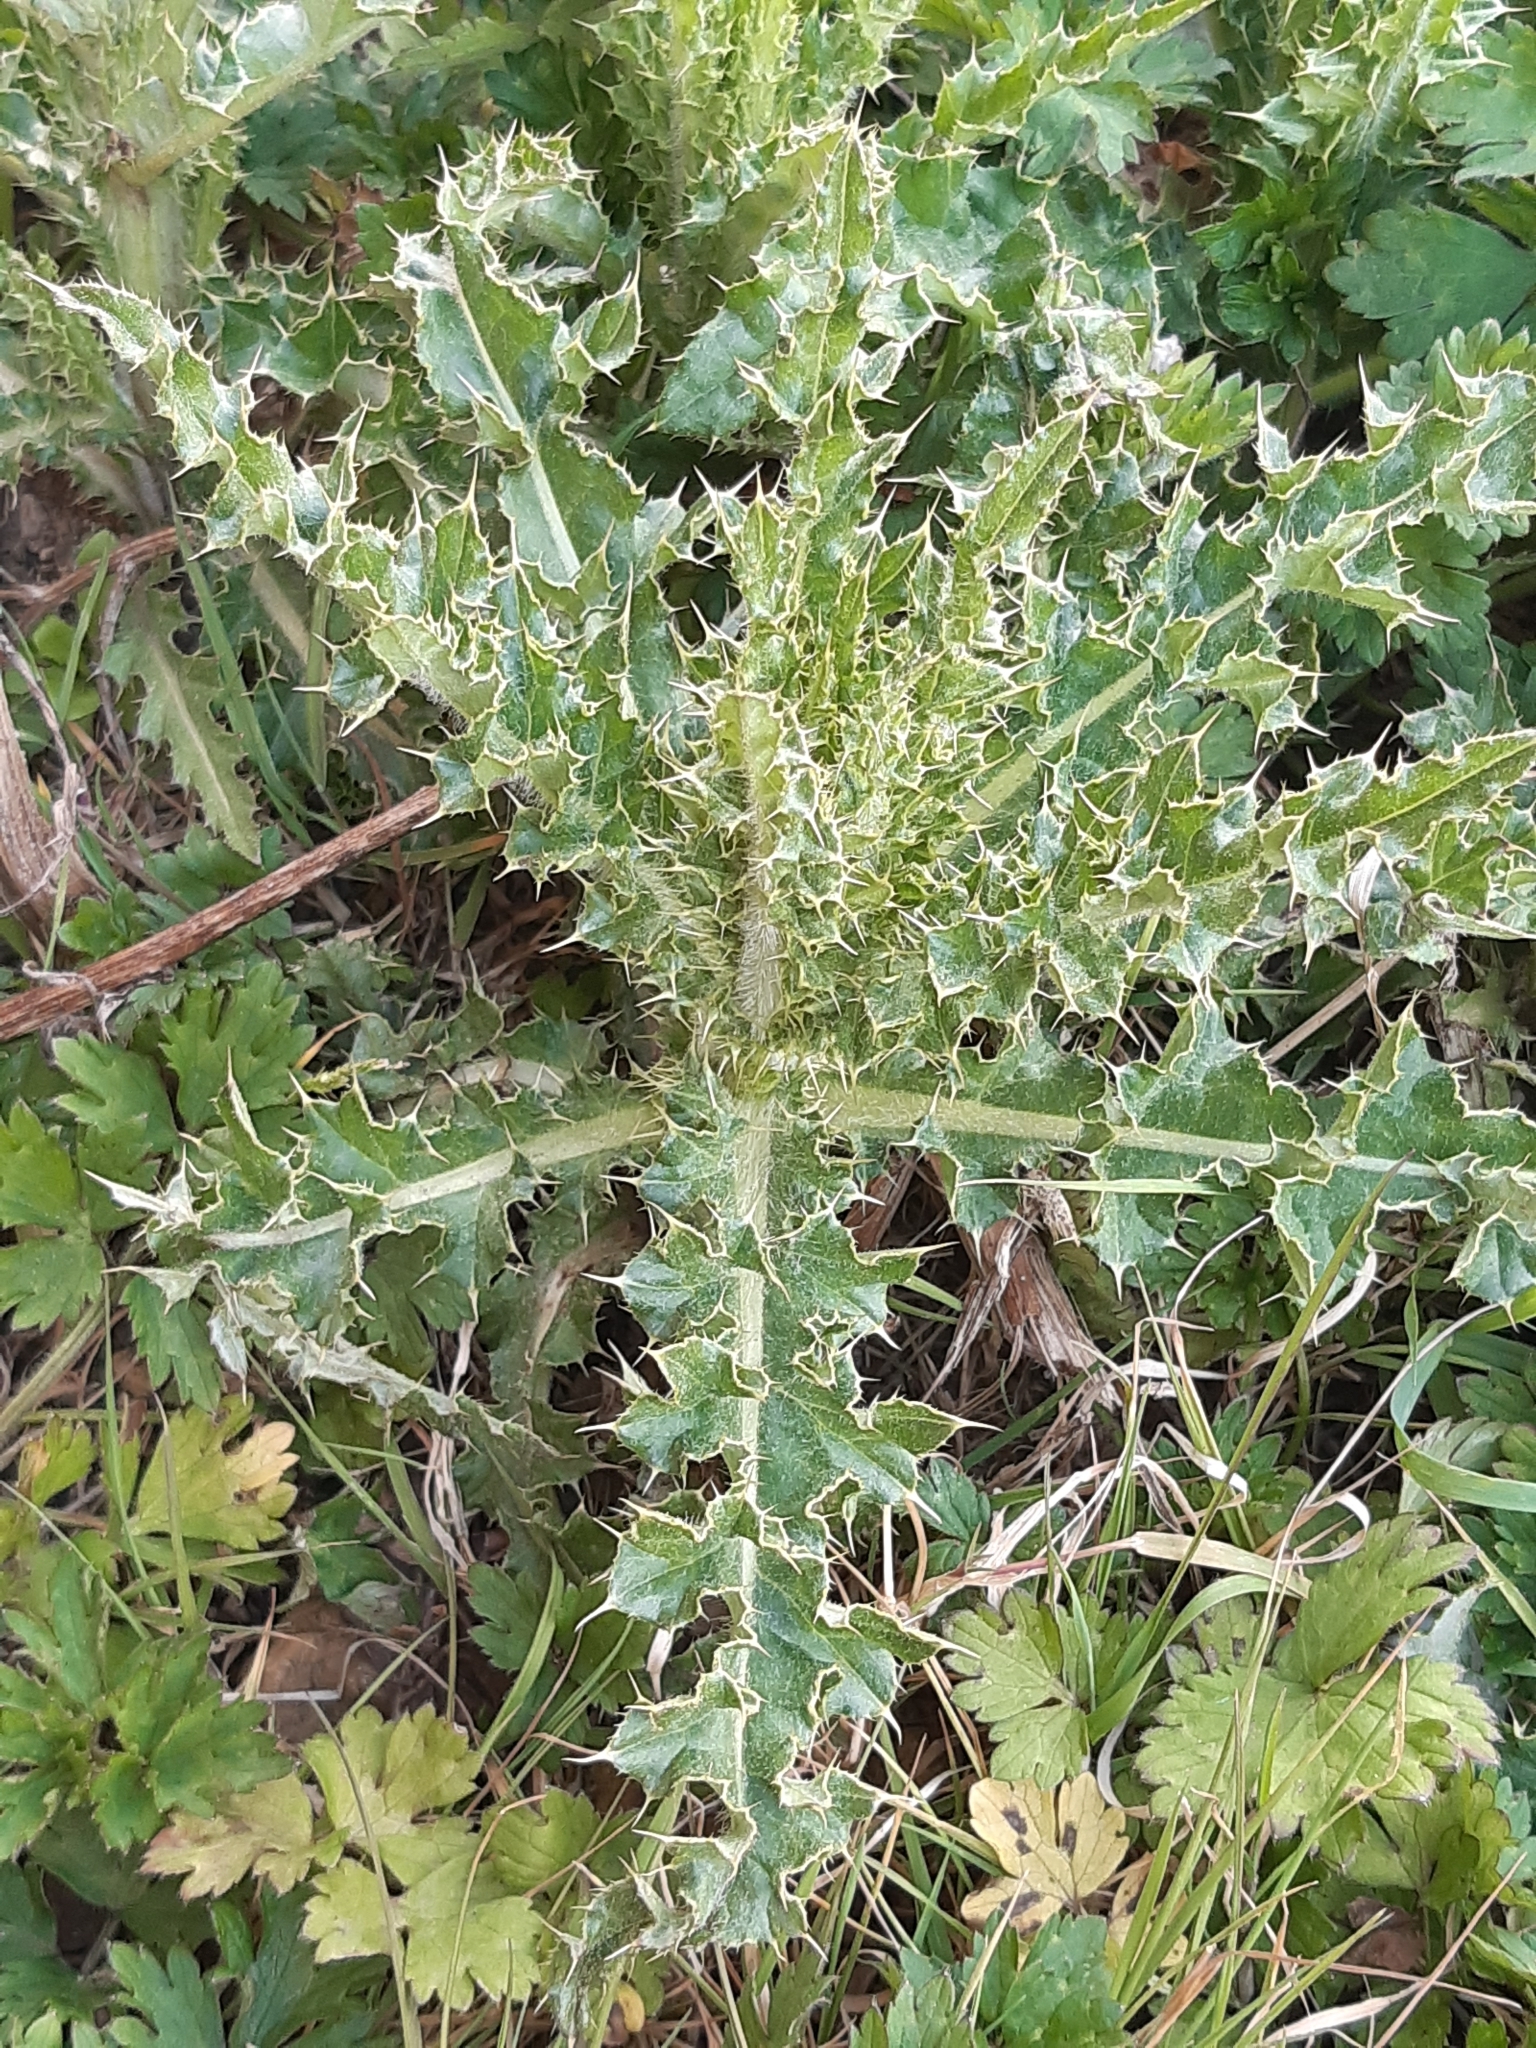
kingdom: Plantae
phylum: Tracheophyta
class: Magnoliopsida
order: Asterales
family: Asteraceae
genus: Cirsium
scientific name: Cirsium arvense
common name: Creeping thistle
